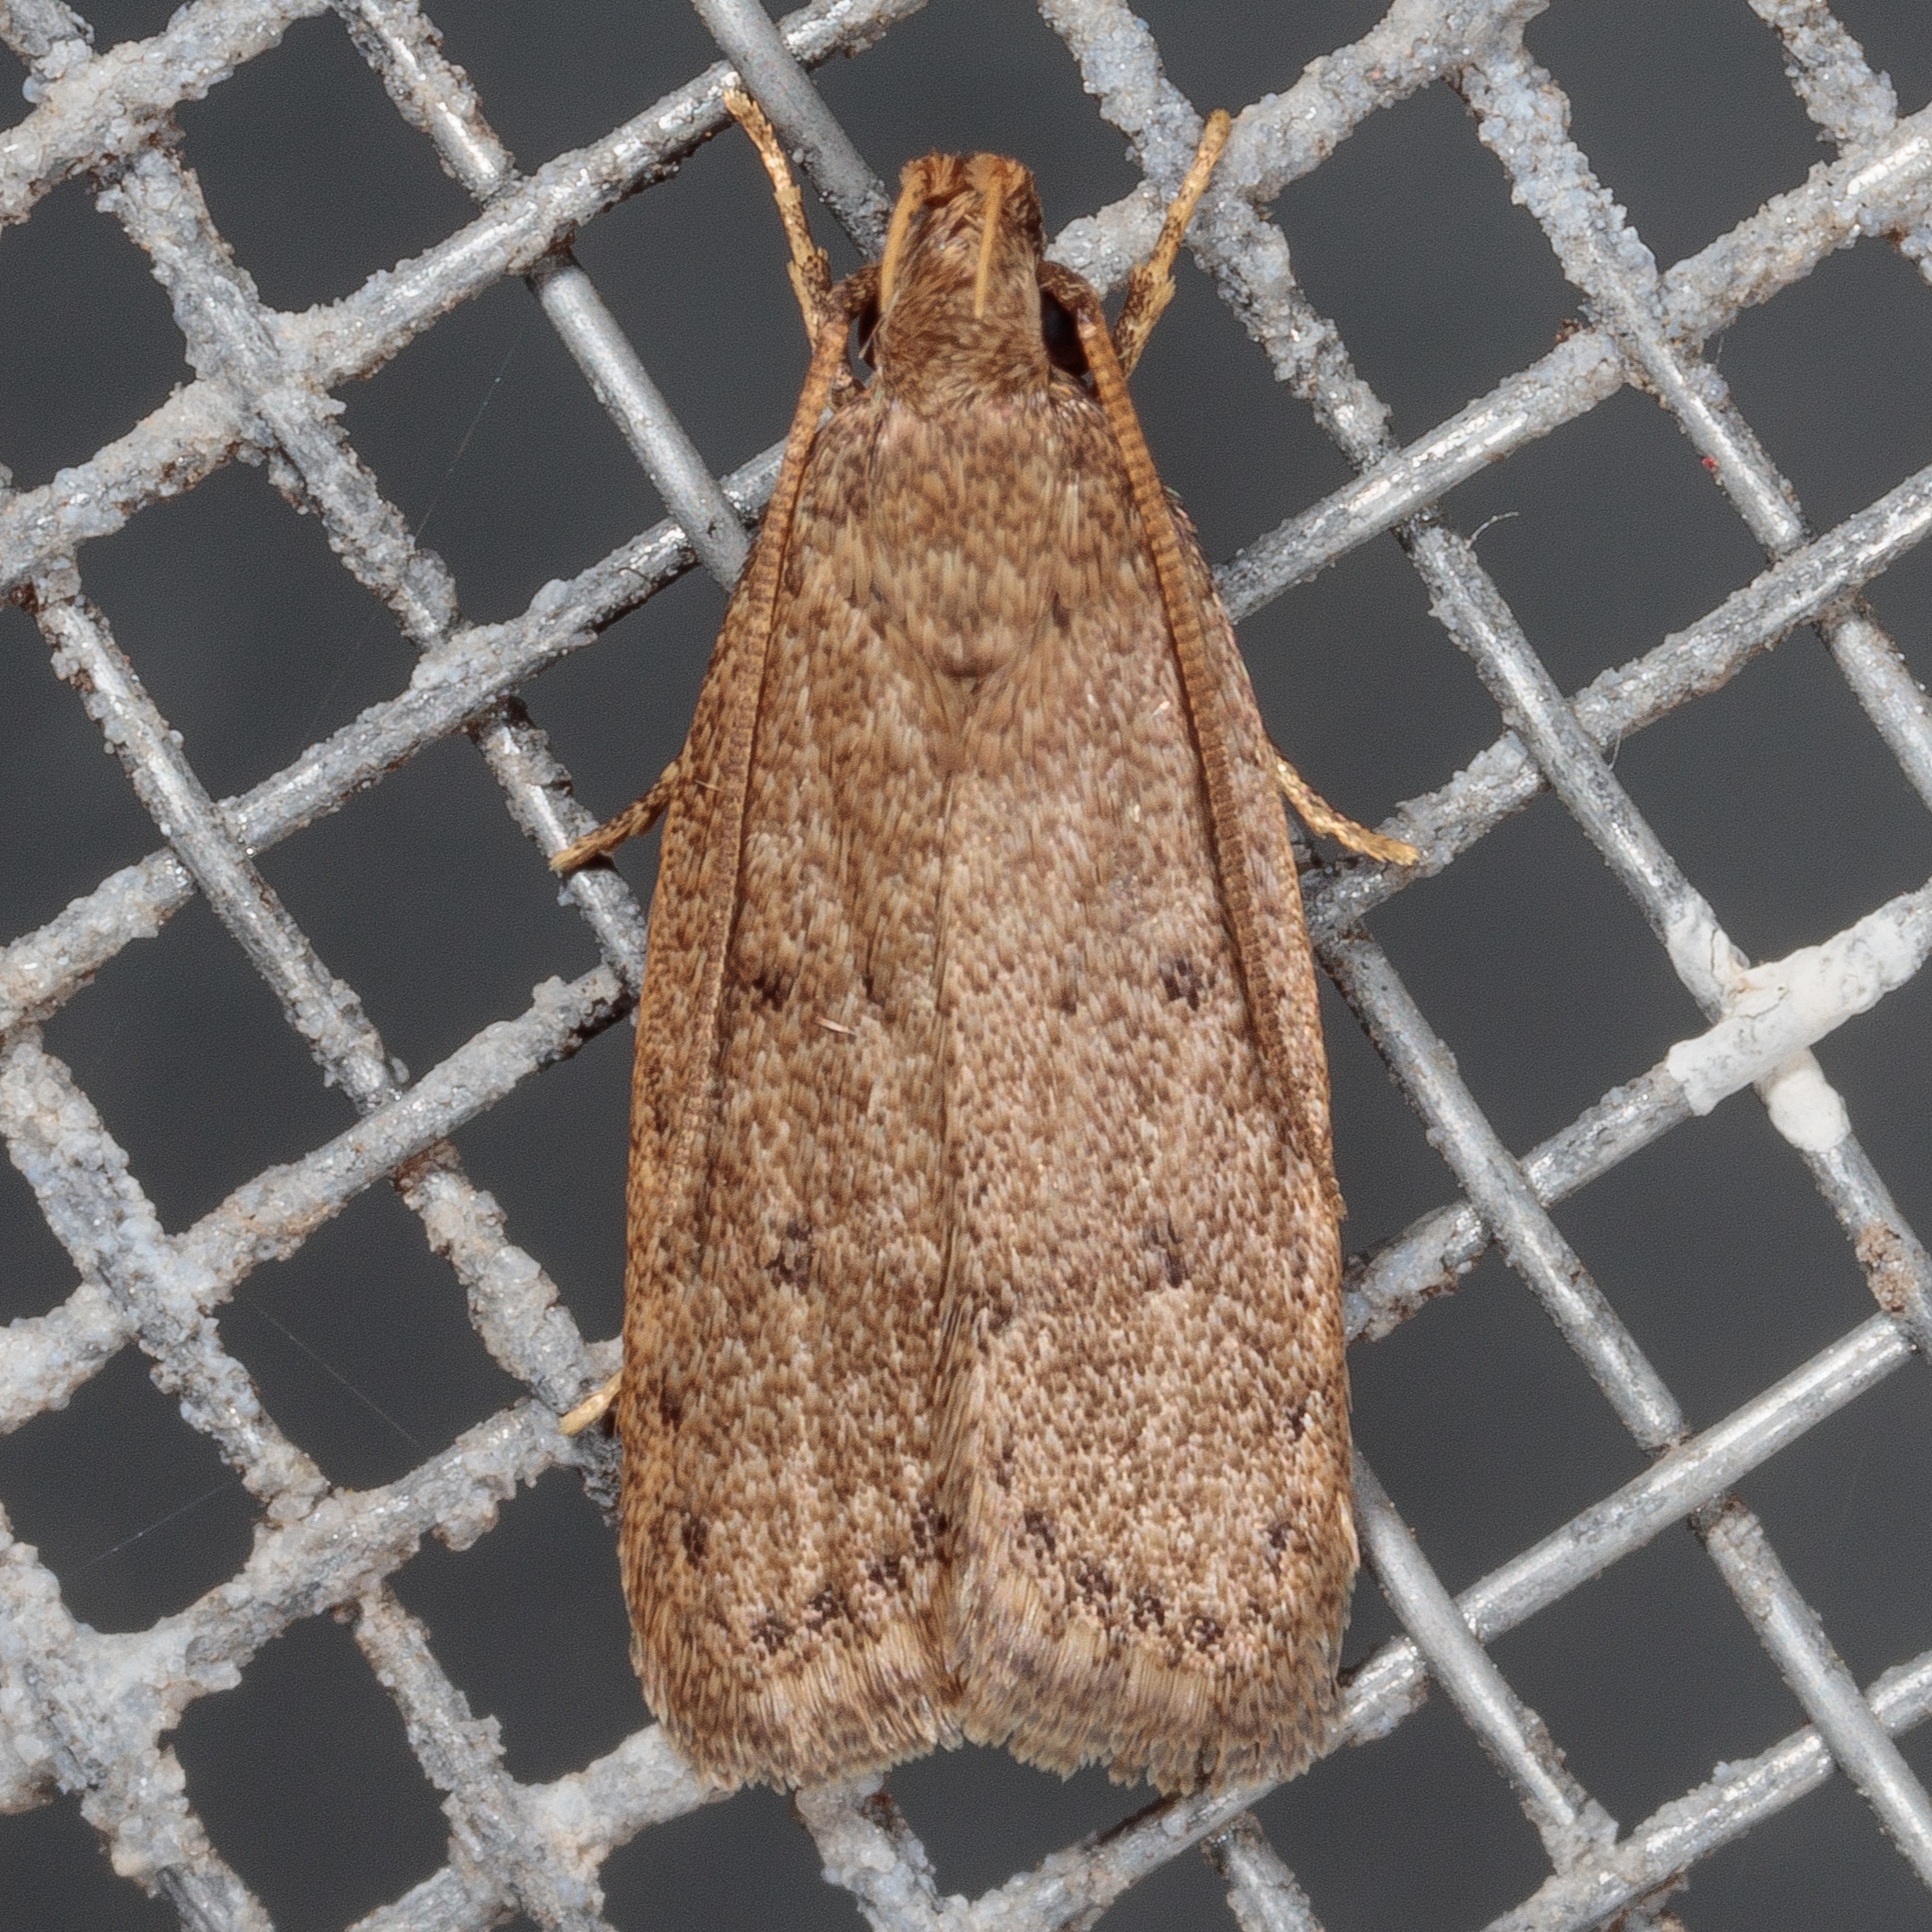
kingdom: Animalia
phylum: Arthropoda
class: Insecta
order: Lepidoptera
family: Autostichidae
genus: Autosticha
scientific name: Autosticha kyotensis
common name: Kyoto moth
